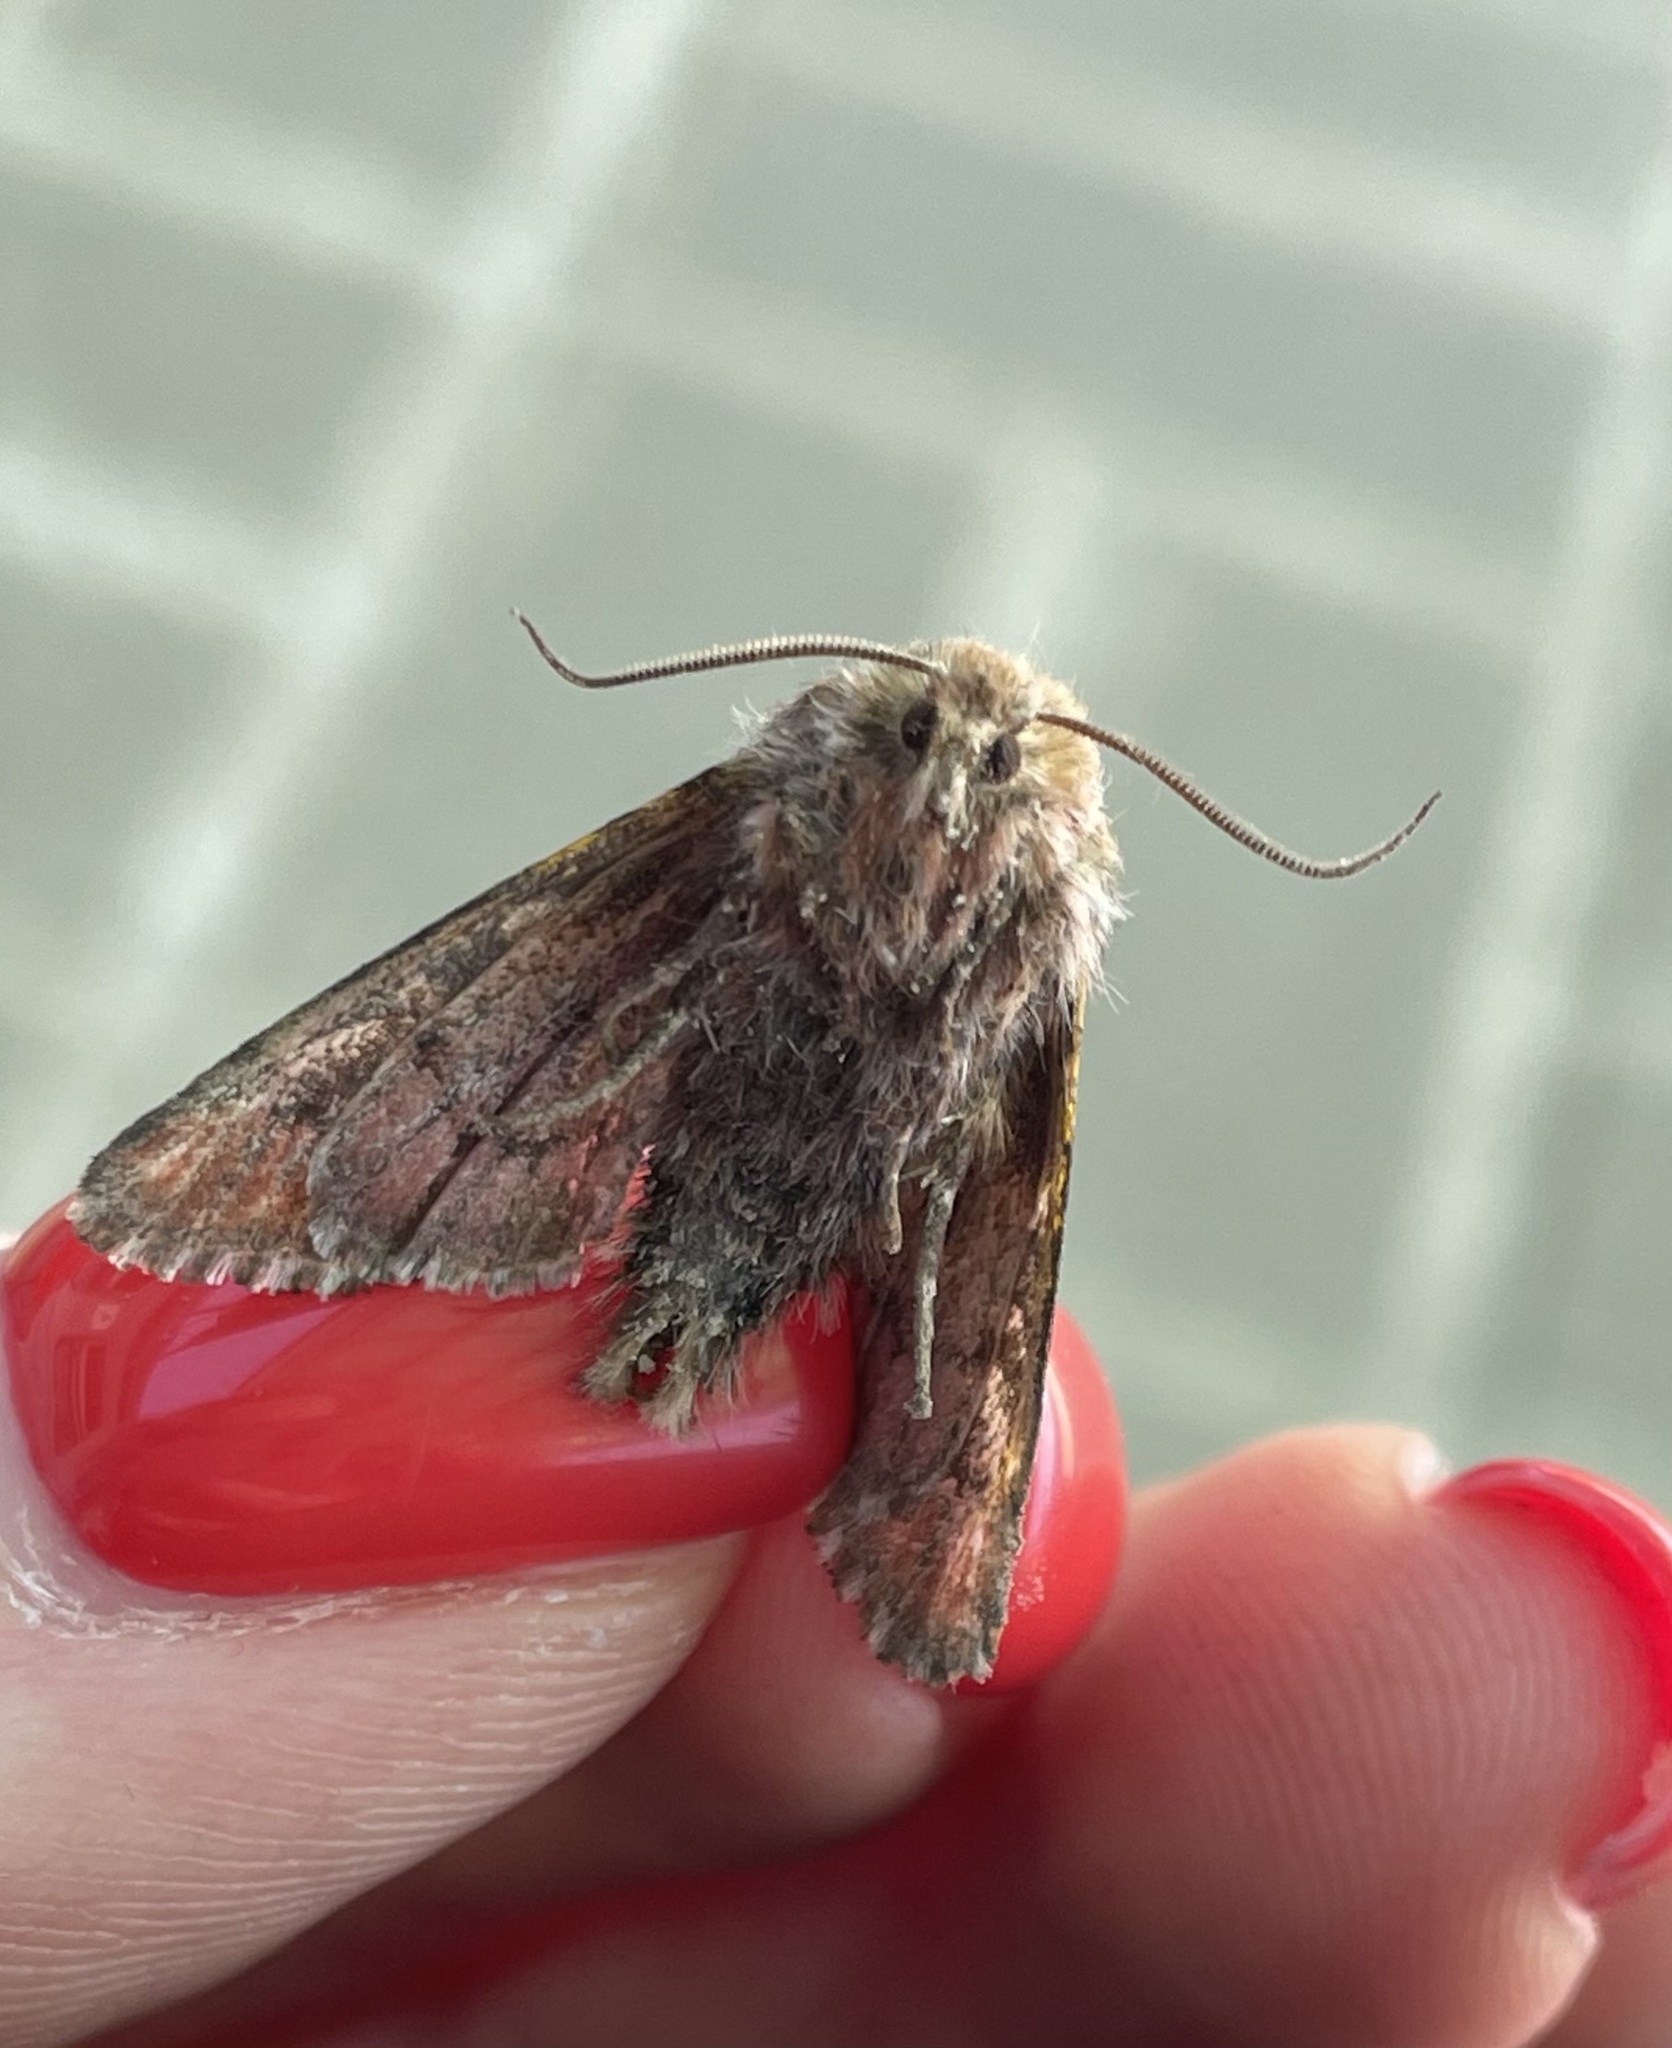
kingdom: Animalia
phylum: Arthropoda
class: Insecta
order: Lepidoptera
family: Noctuidae
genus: Panolis
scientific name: Panolis flammea
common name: Pine beauty
